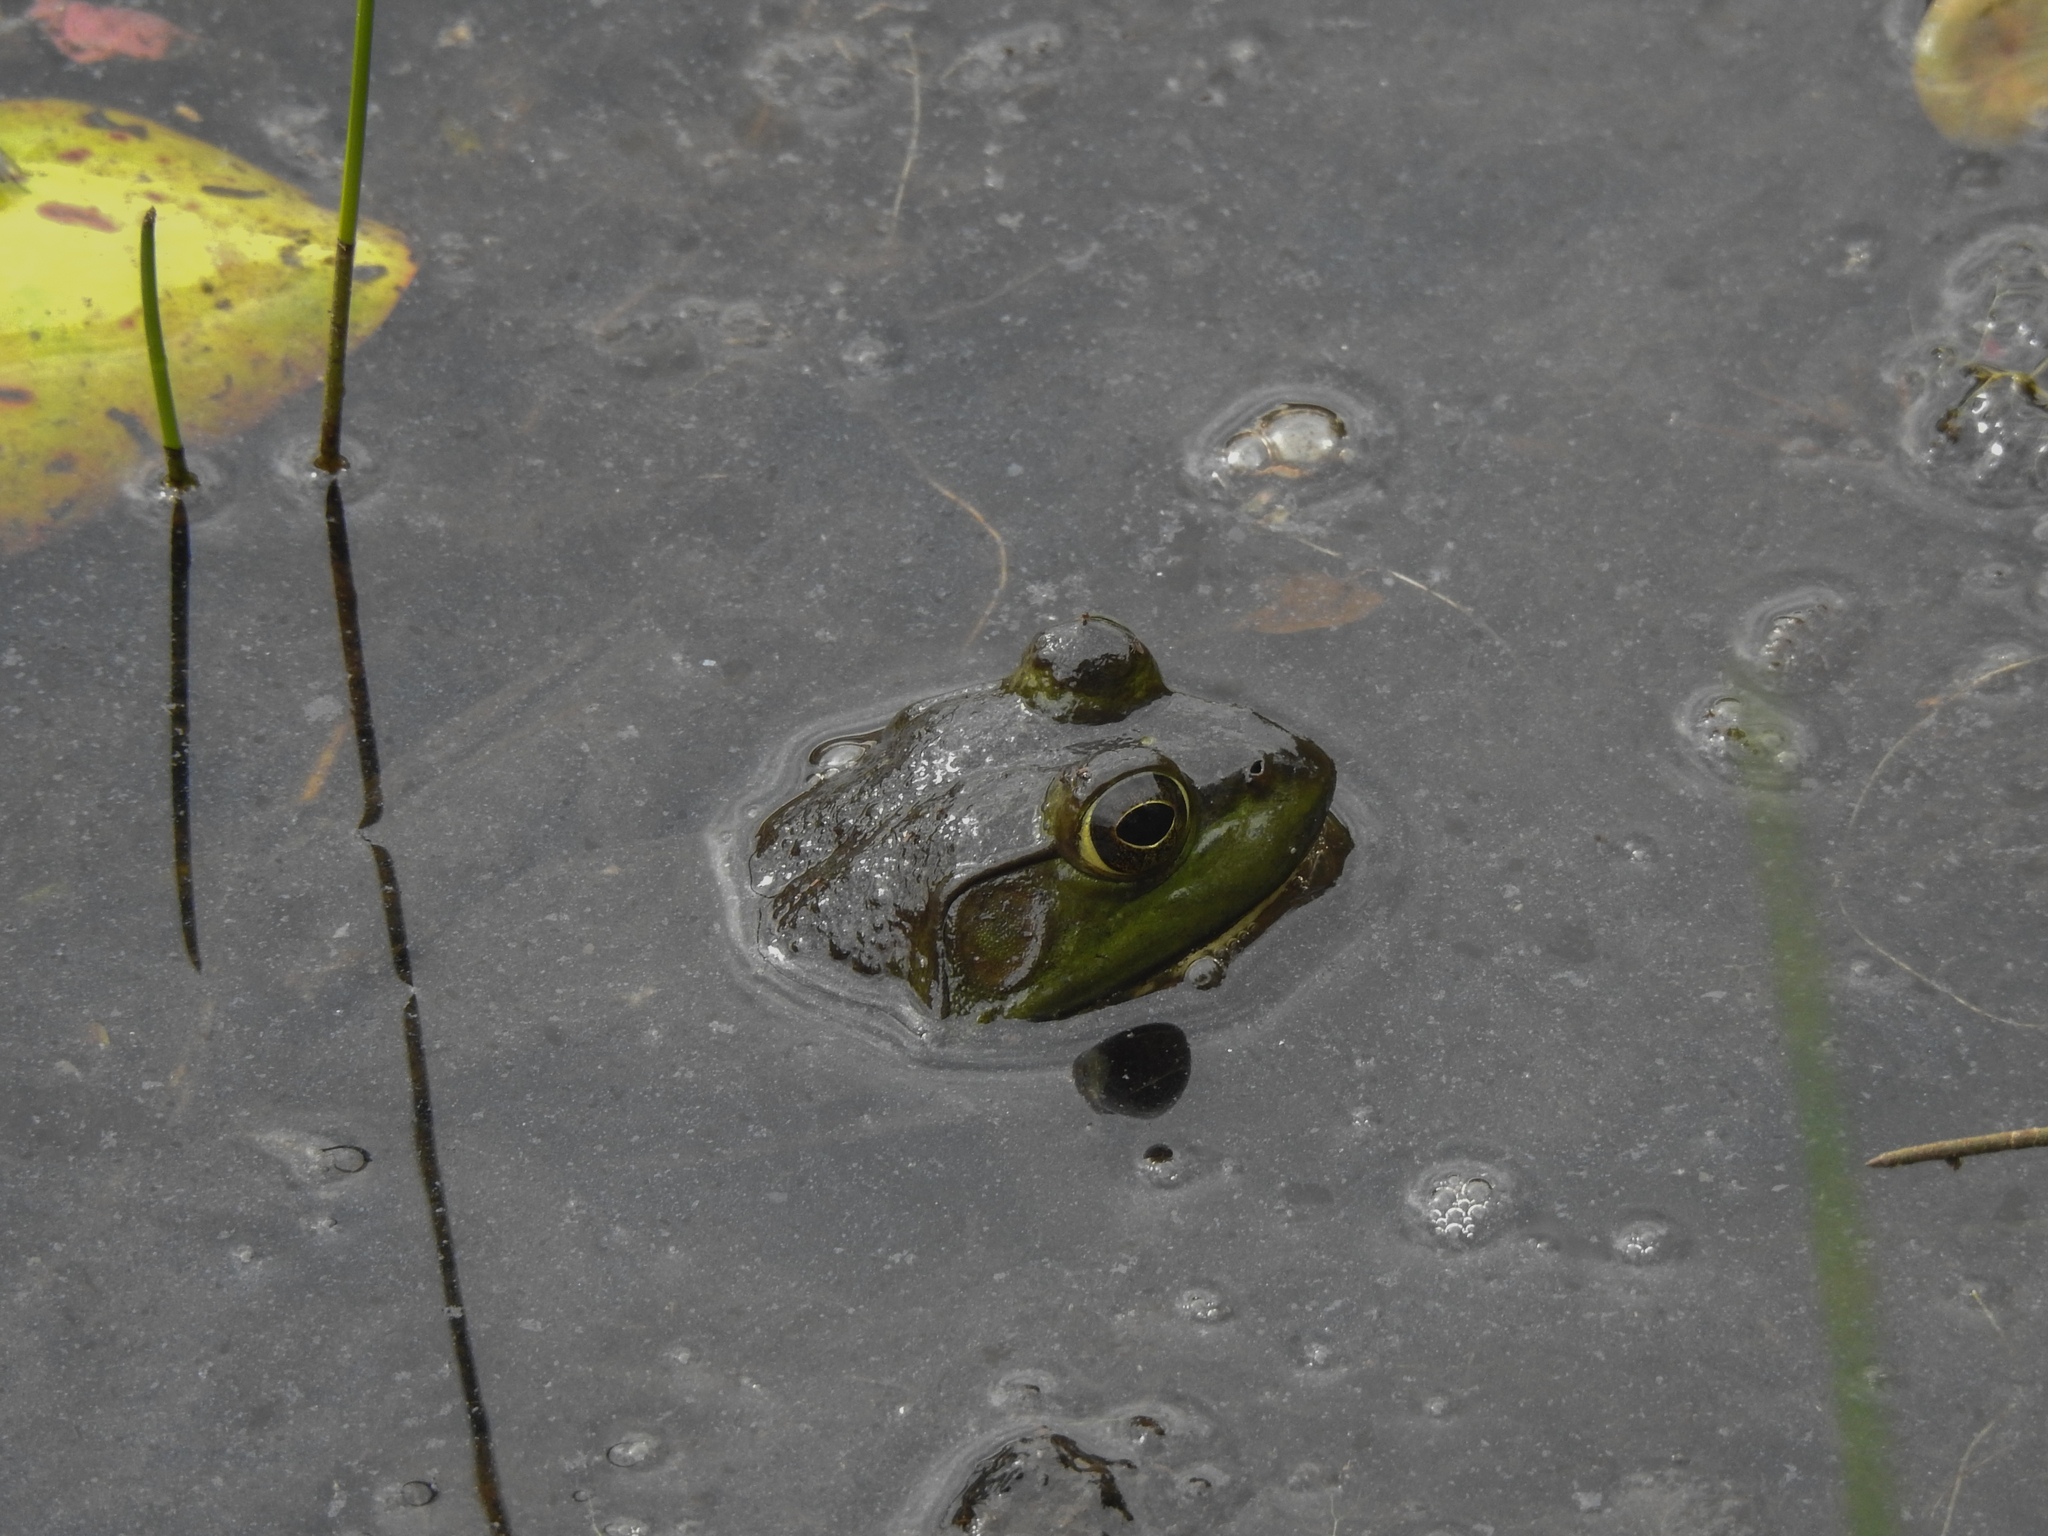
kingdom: Animalia
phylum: Chordata
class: Amphibia
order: Anura
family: Ranidae
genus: Lithobates
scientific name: Lithobates catesbeianus
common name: American bullfrog
